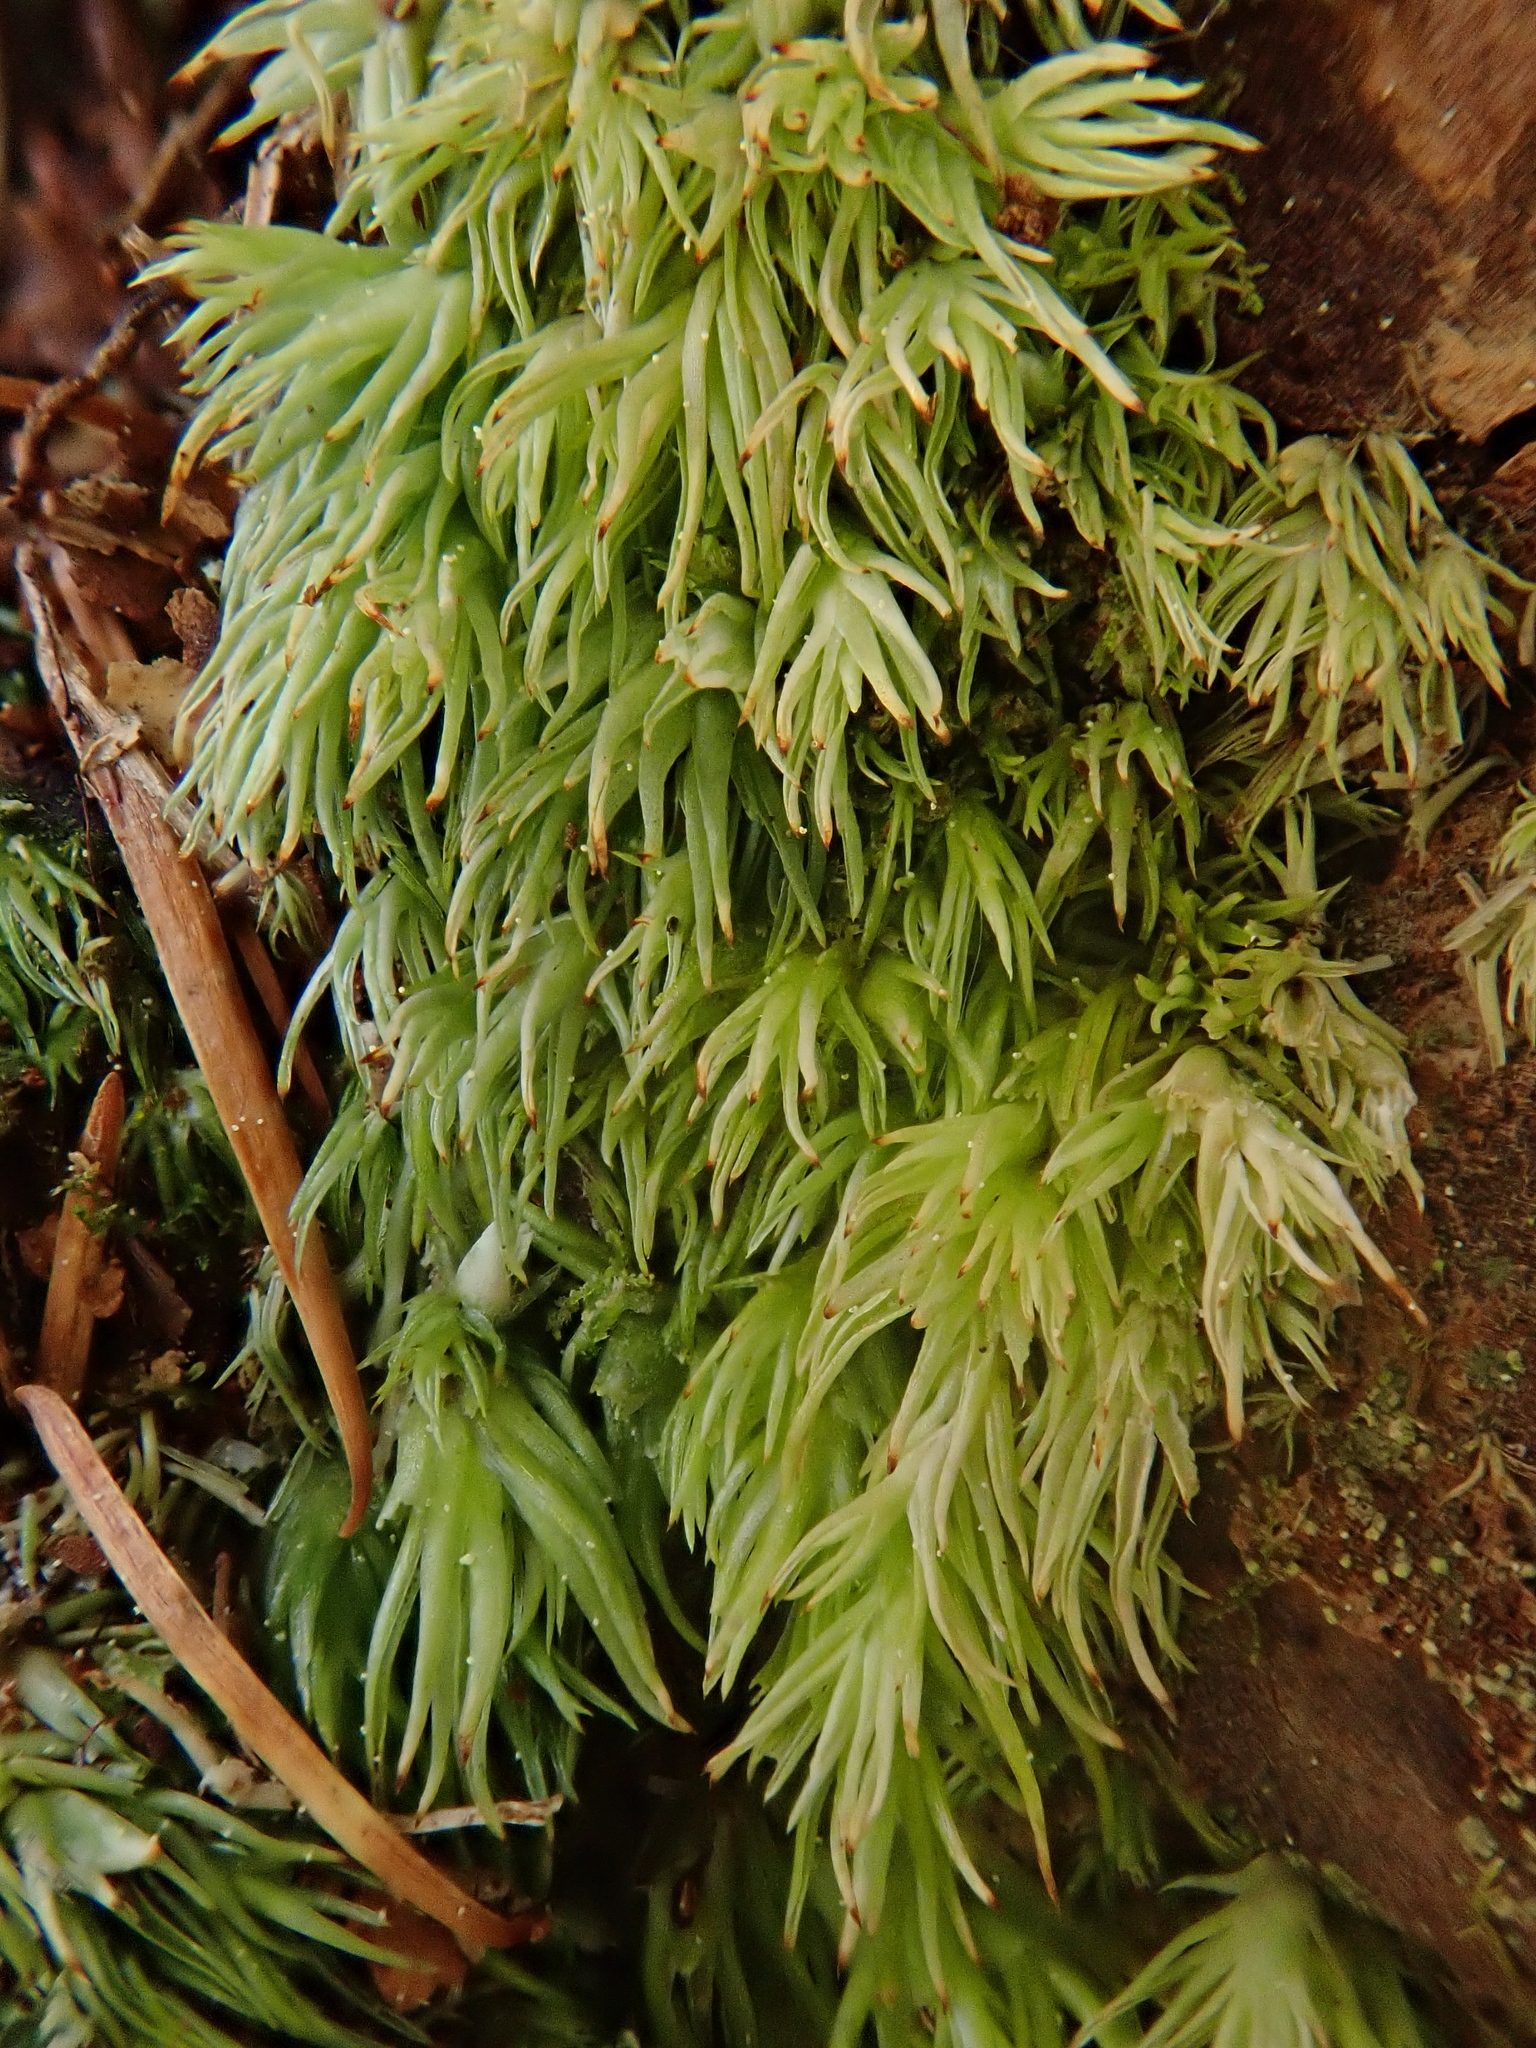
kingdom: Plantae
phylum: Bryophyta
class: Bryopsida
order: Dicranales
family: Leucobryaceae
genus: Leucobryum
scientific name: Leucobryum juniperoideum
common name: Smaller white-moss
